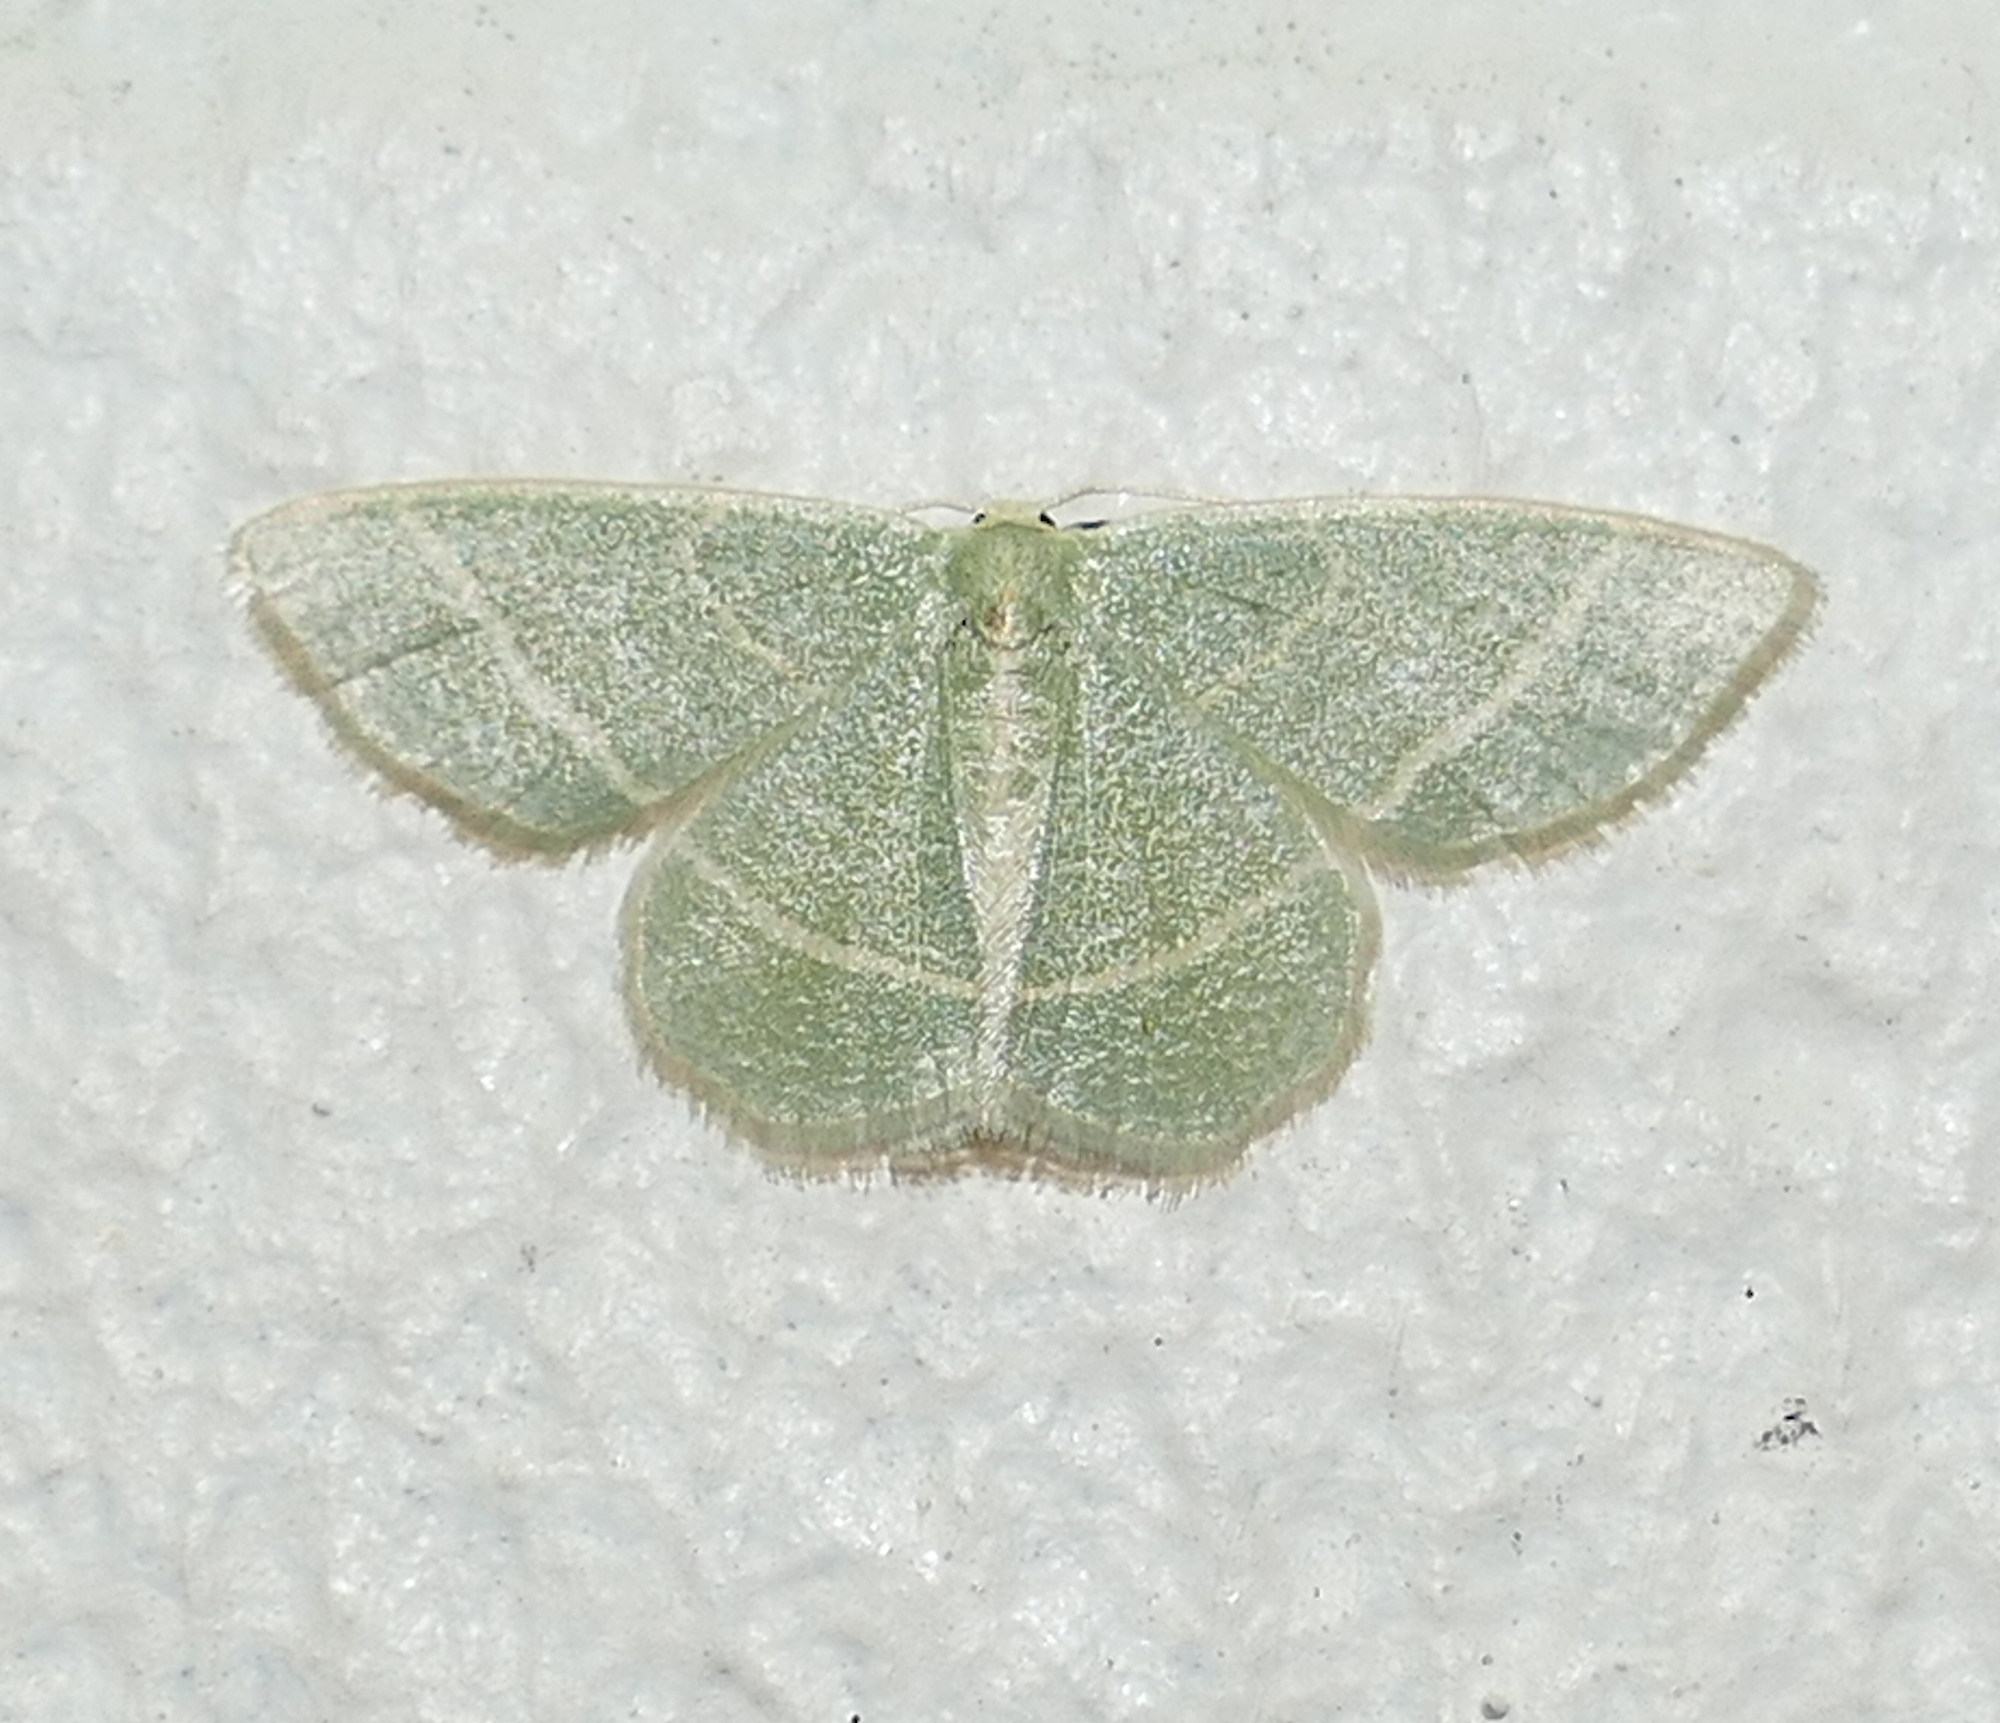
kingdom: Animalia
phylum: Arthropoda
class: Insecta
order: Lepidoptera
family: Geometridae
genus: Chlorochlamys
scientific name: Chlorochlamys chloroleucaria
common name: Blackberry looper
